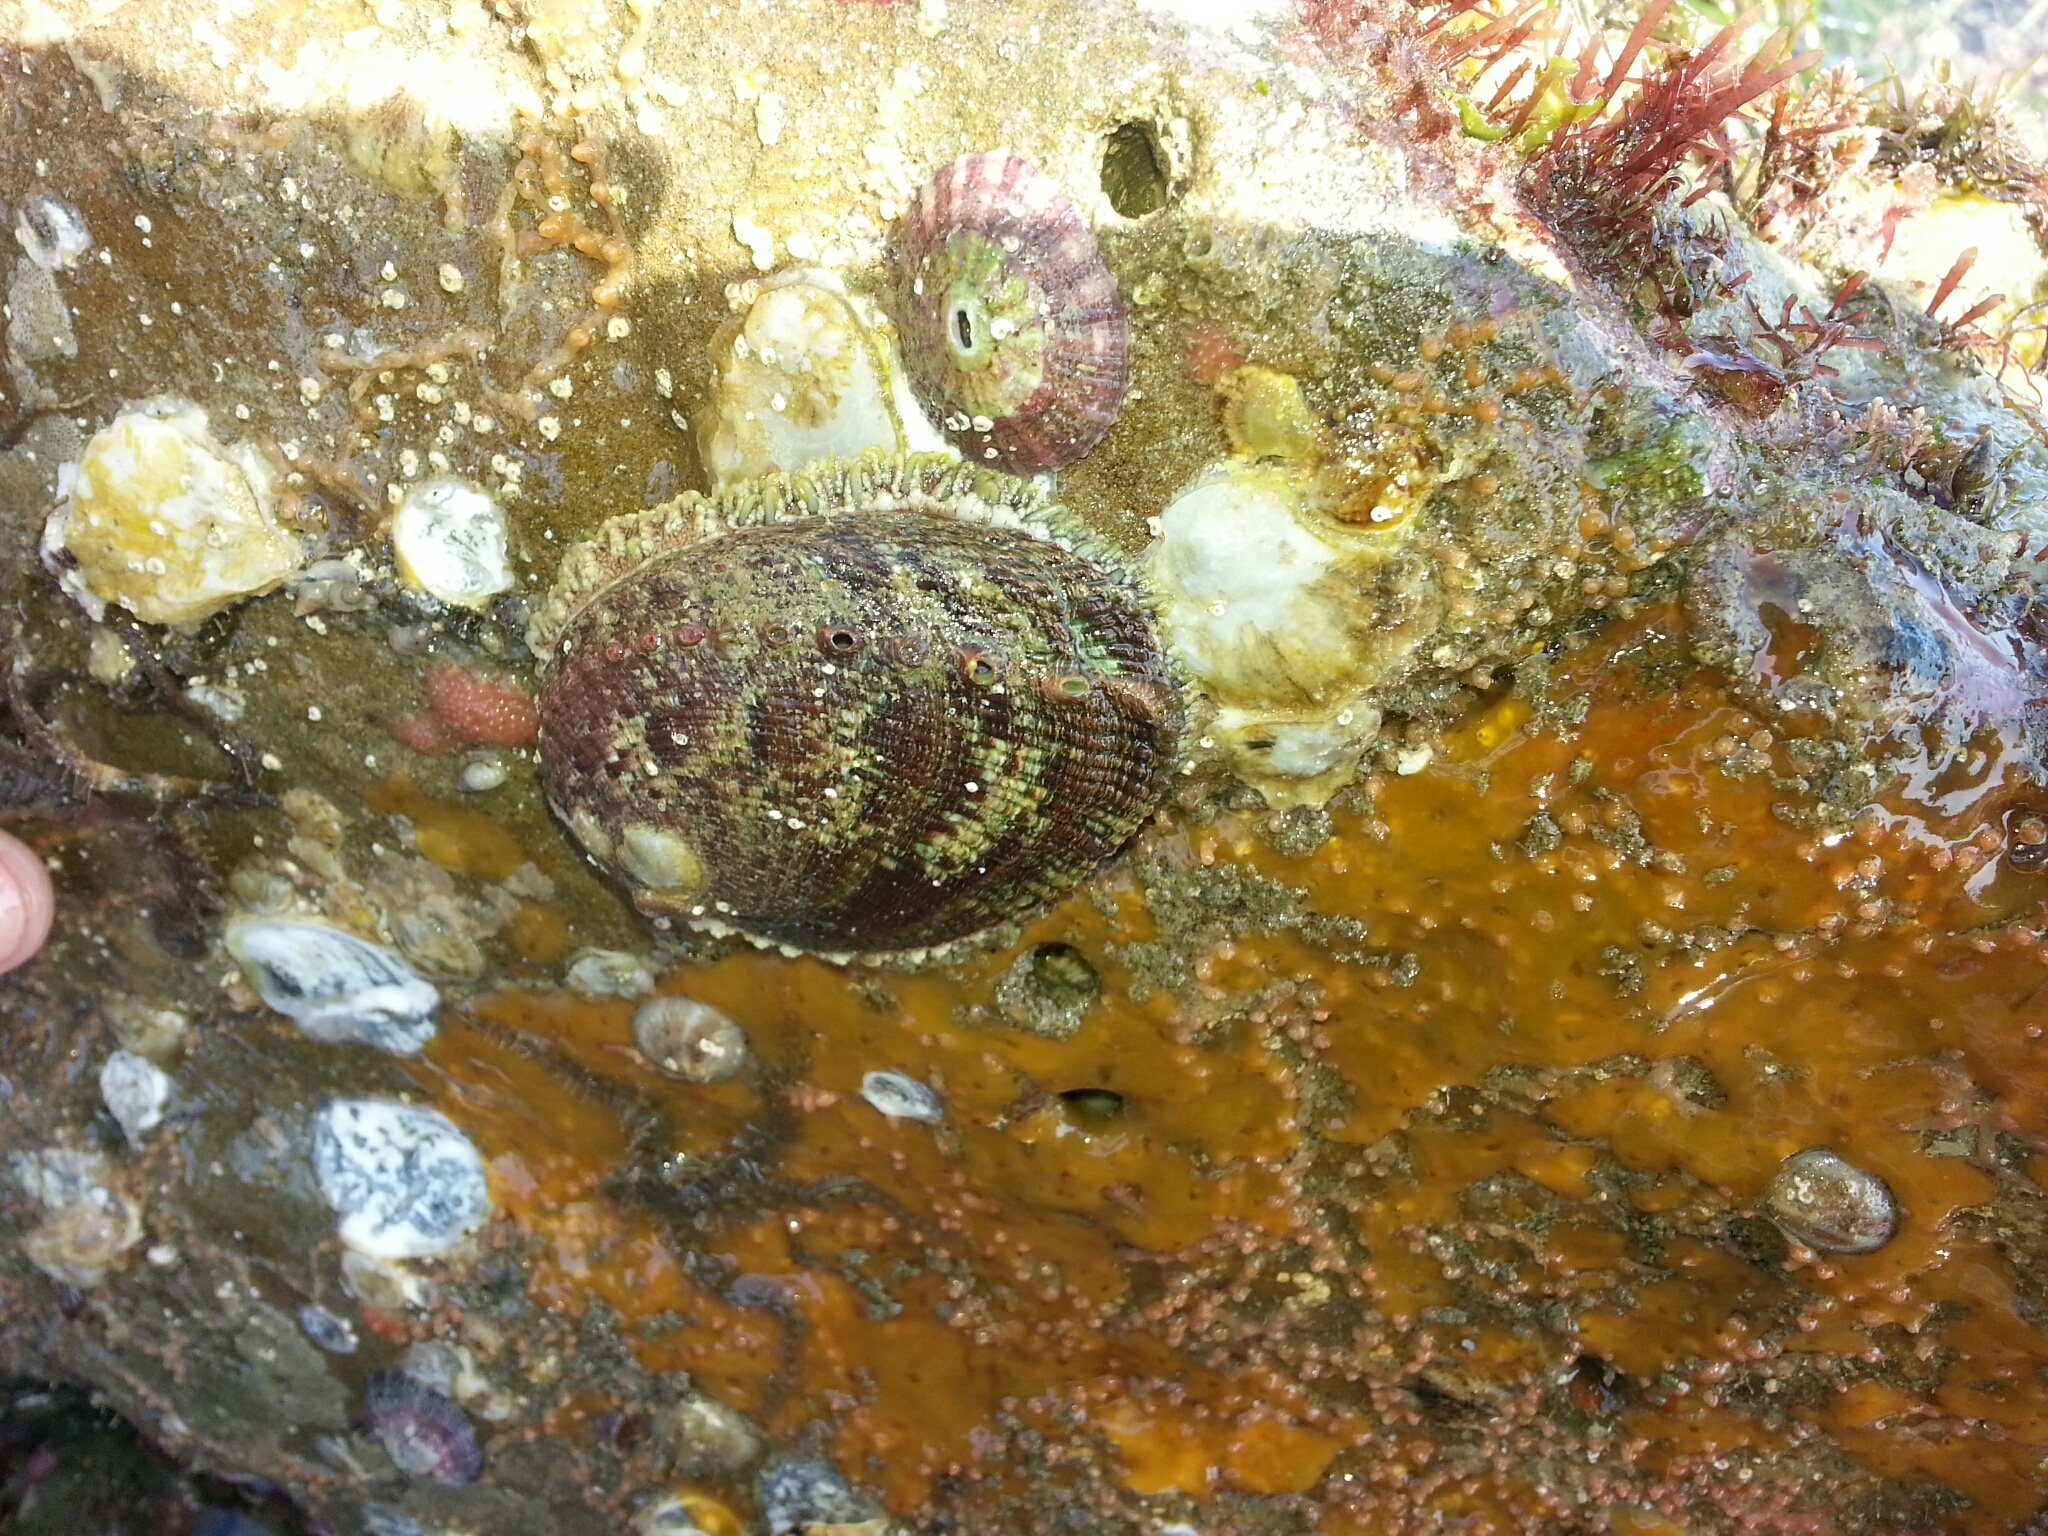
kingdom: Animalia
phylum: Mollusca
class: Gastropoda
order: Lepetellida
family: Haliotidae
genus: Haliotis
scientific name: Haliotis fulgens
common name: Green abalone
